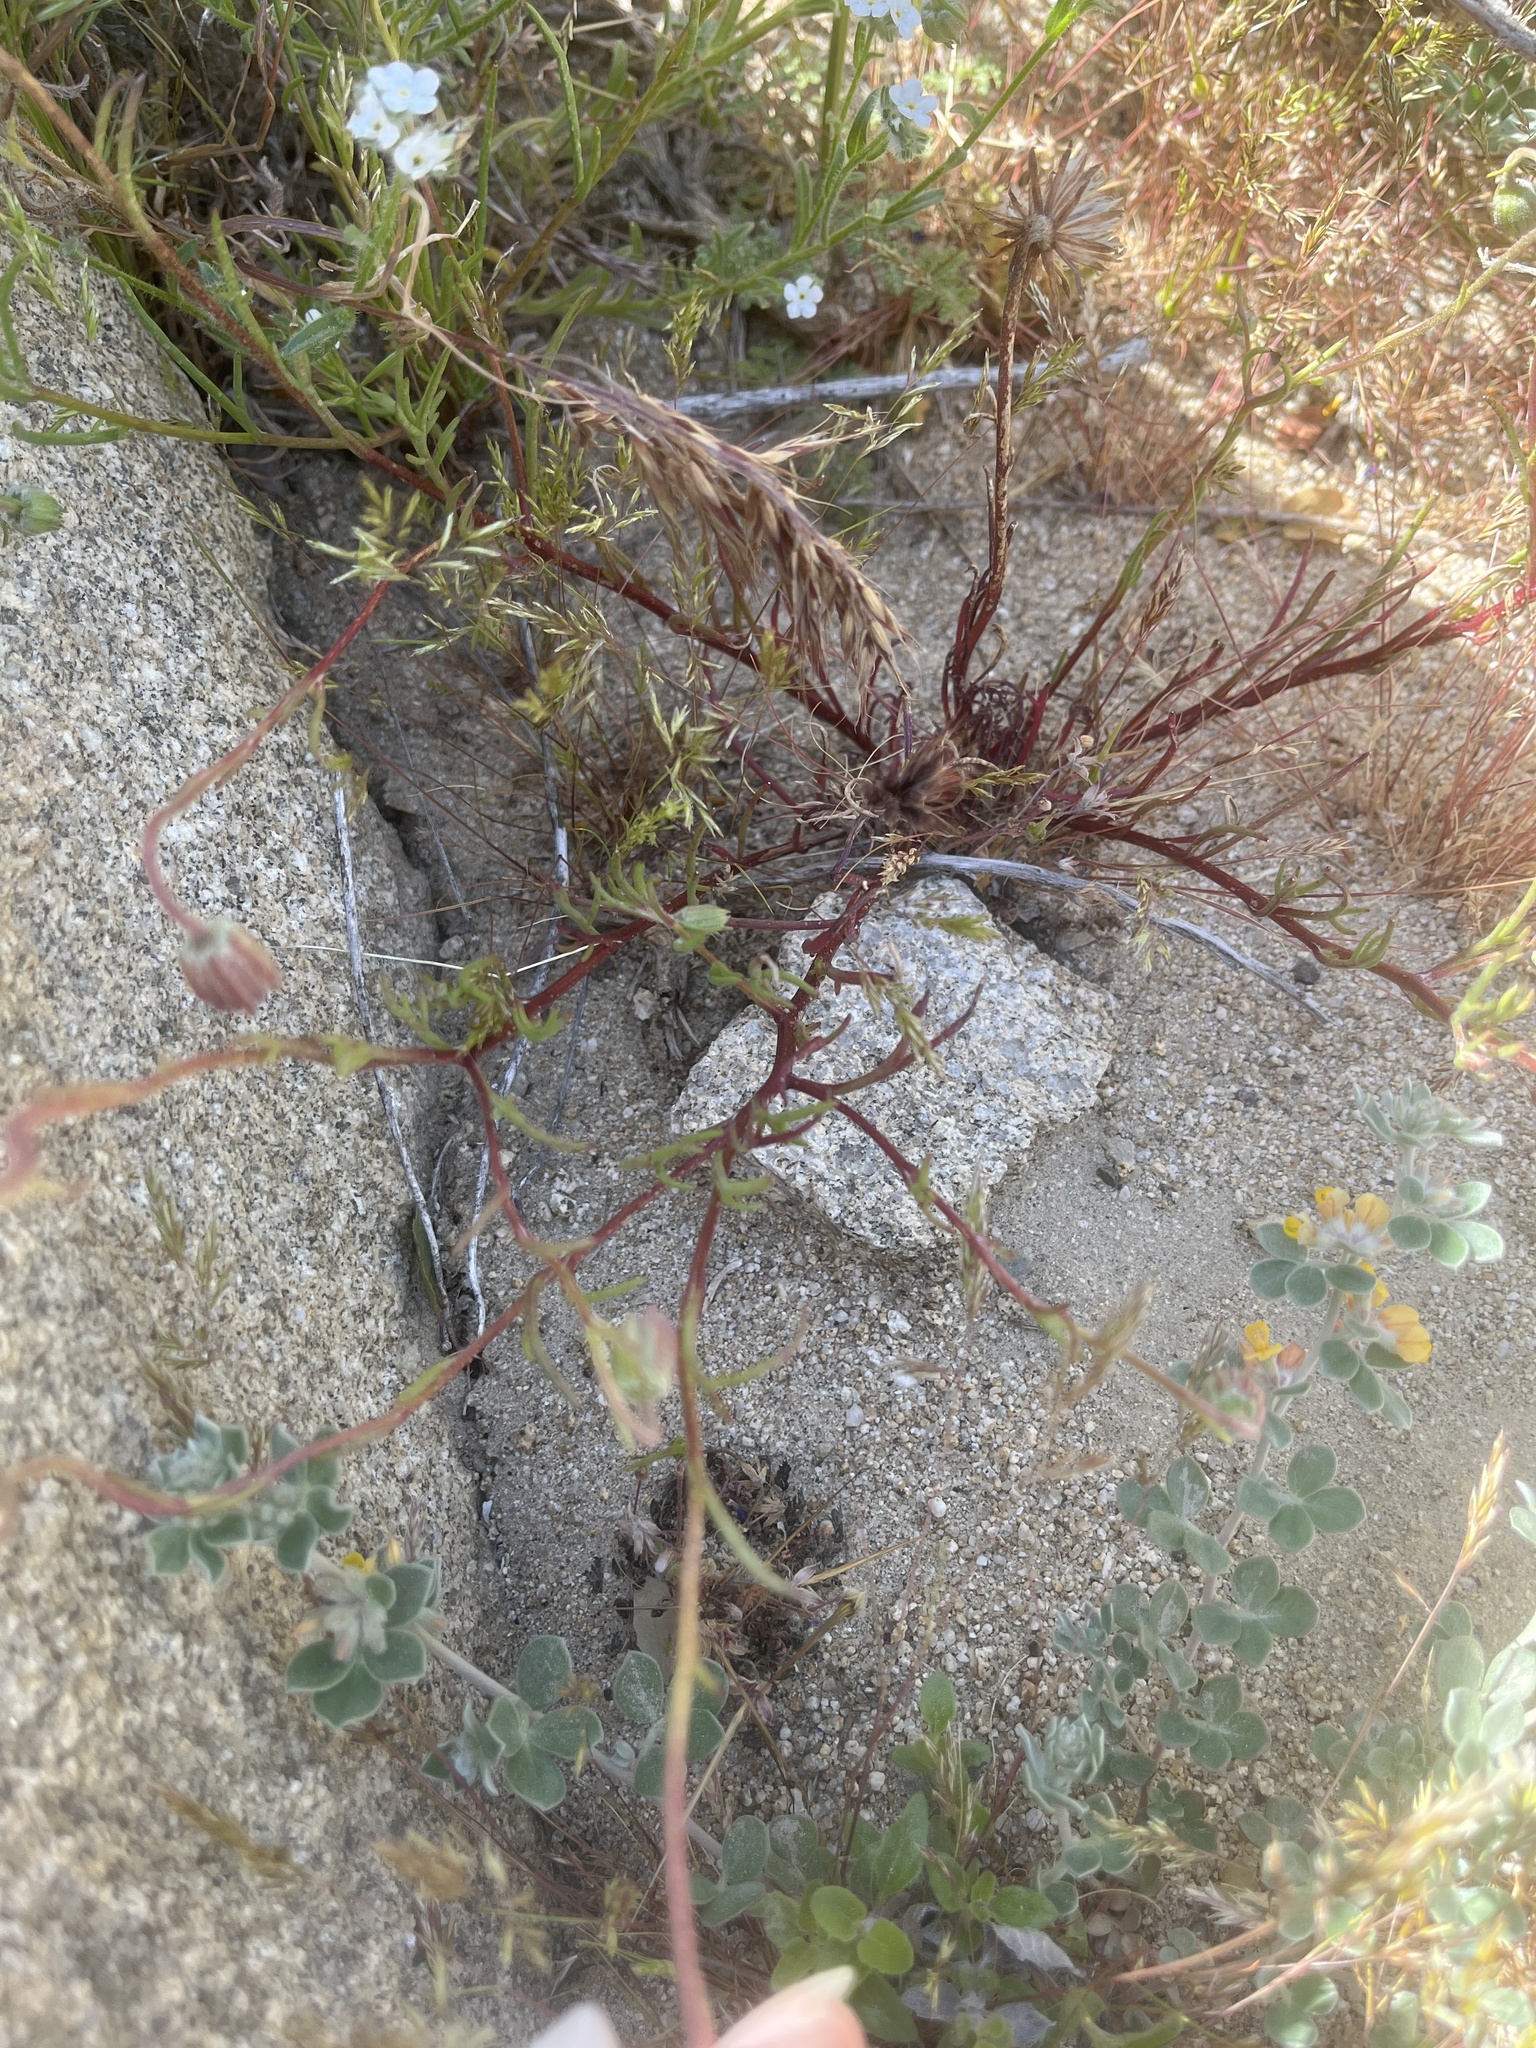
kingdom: Plantae
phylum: Tracheophyta
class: Magnoliopsida
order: Asterales
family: Asteraceae
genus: Chaenactis
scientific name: Chaenactis fremontii
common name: Fremont pincushion
